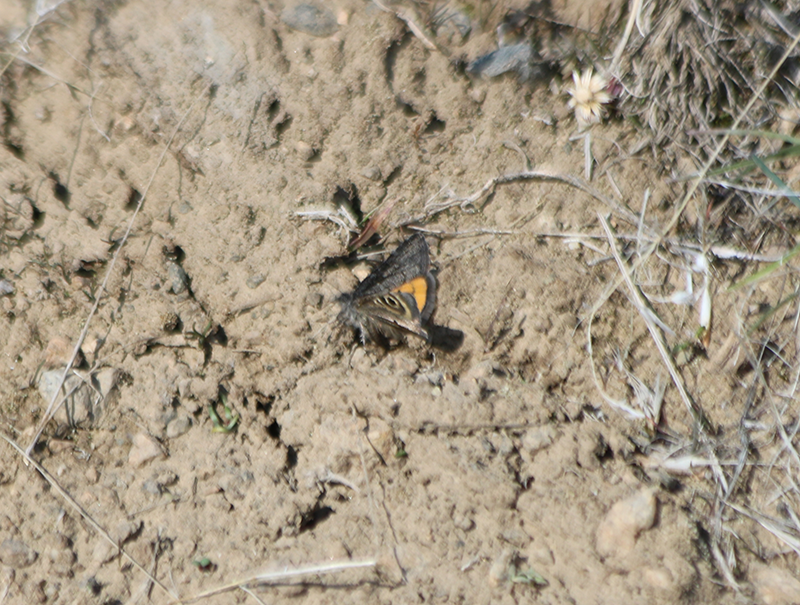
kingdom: Animalia
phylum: Arthropoda
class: Insecta
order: Lepidoptera
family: Noctuidae
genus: Annaphila
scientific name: Annaphila danistica
